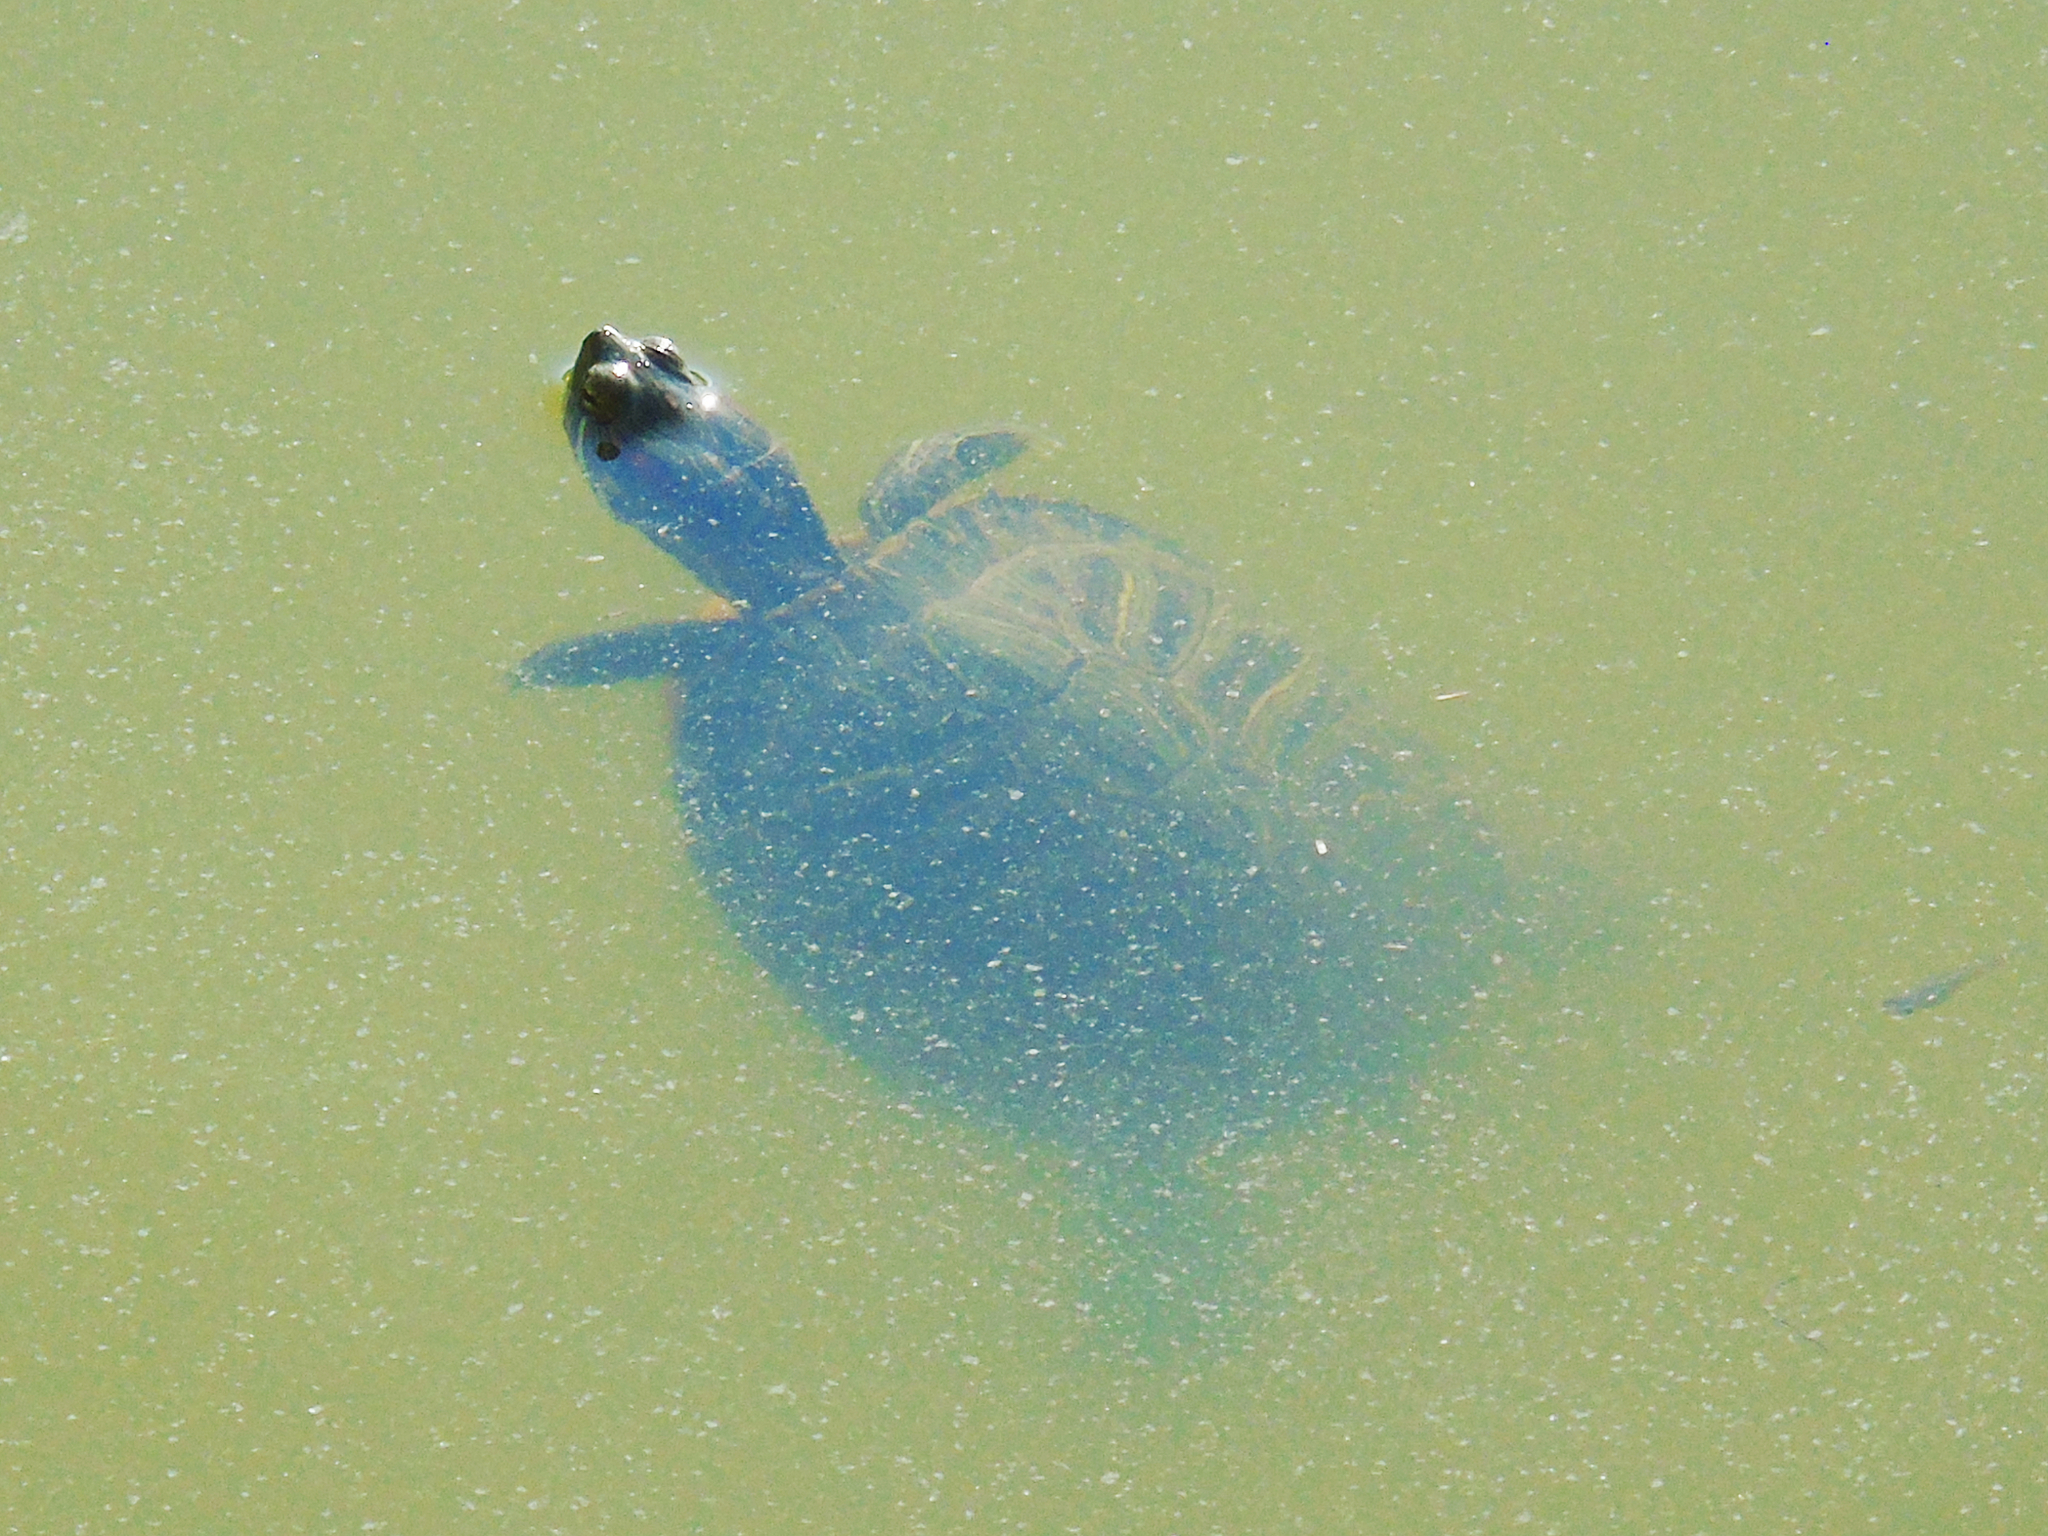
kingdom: Animalia
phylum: Chordata
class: Testudines
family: Emydidae
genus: Trachemys
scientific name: Trachemys scripta
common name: Slider
